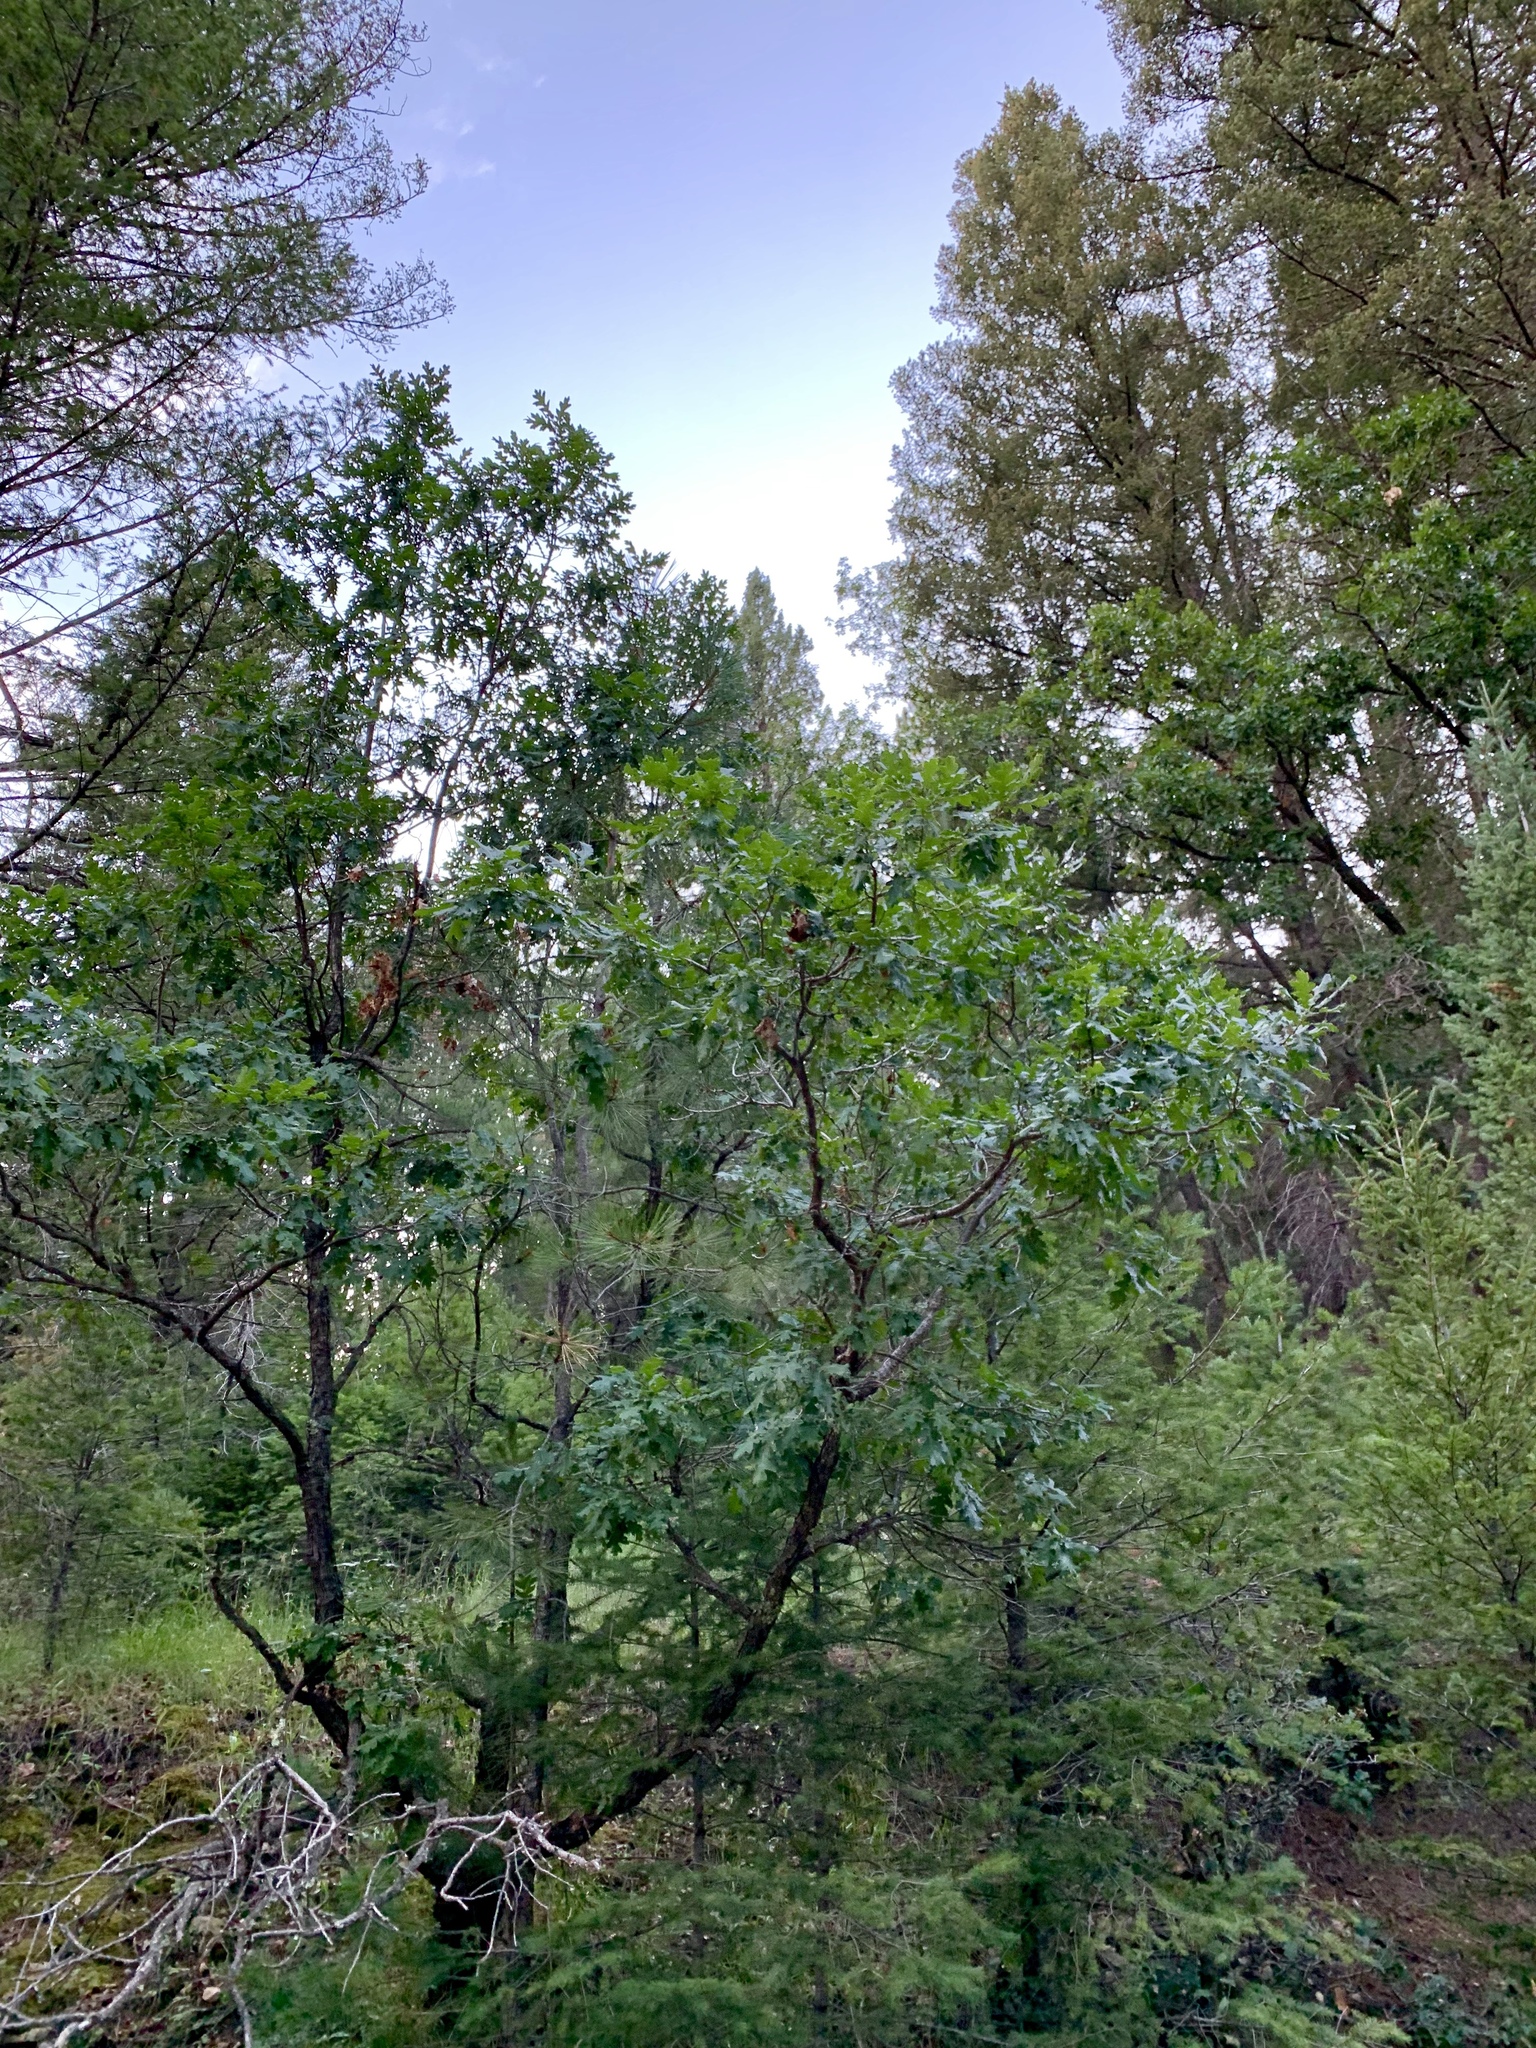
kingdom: Plantae
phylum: Tracheophyta
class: Magnoliopsida
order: Fagales
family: Fagaceae
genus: Quercus
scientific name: Quercus gambelii
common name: Gambel oak
